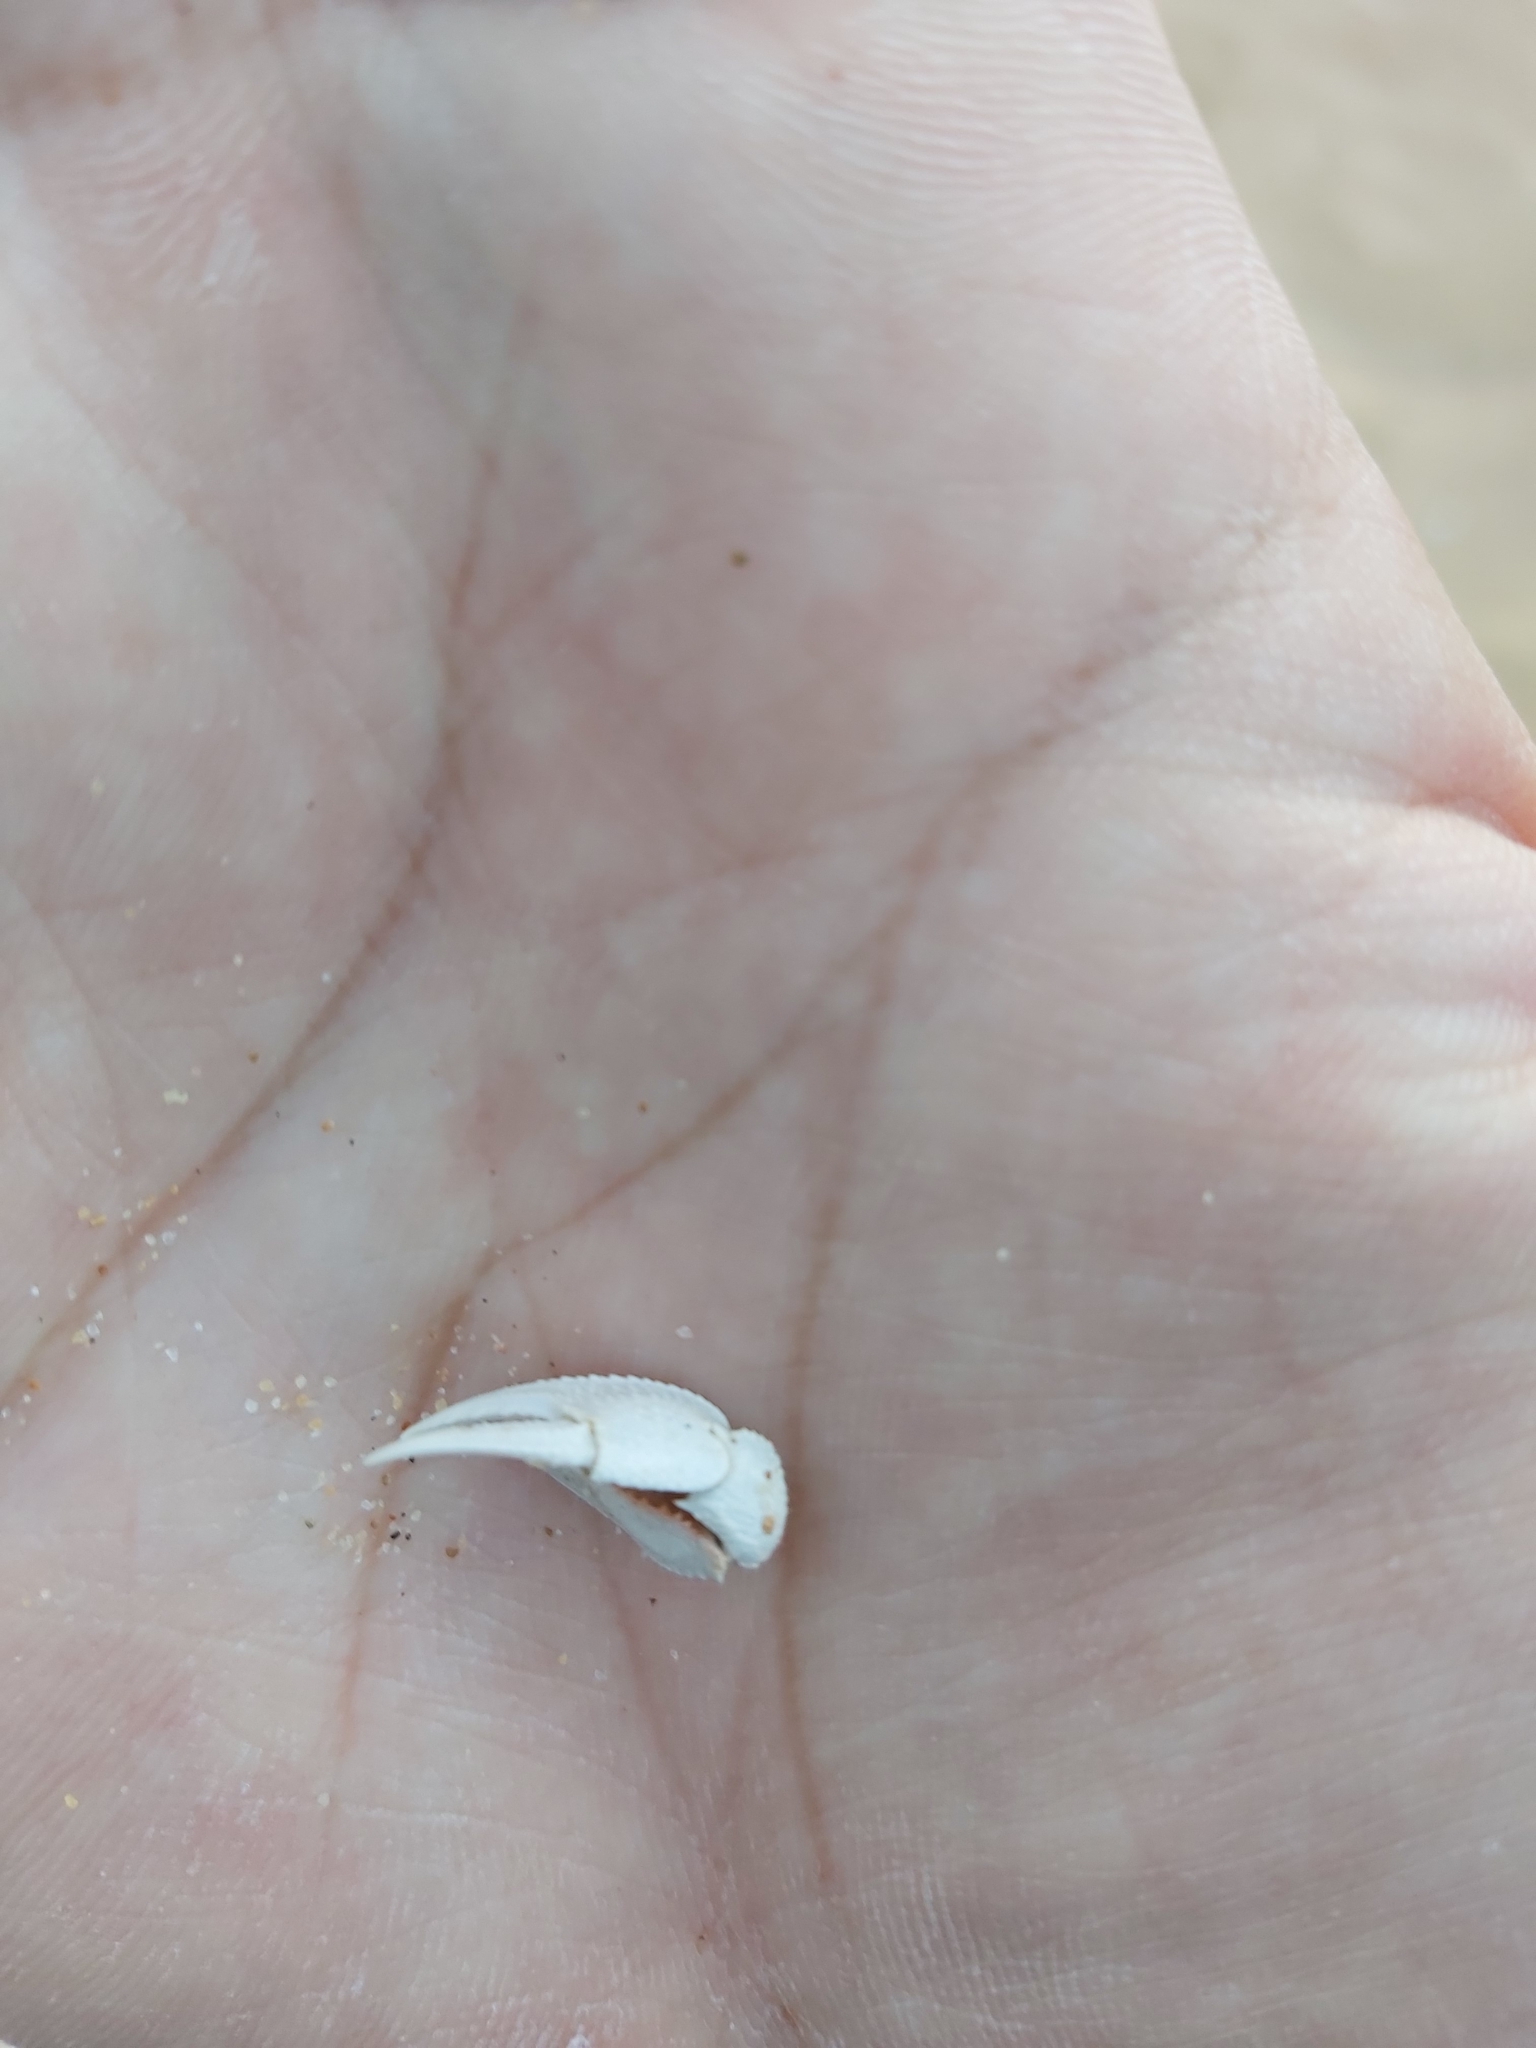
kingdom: Animalia
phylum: Arthropoda
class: Malacostraca
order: Decapoda
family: Ovalipidae
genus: Ovalipes
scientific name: Ovalipes australiensis
